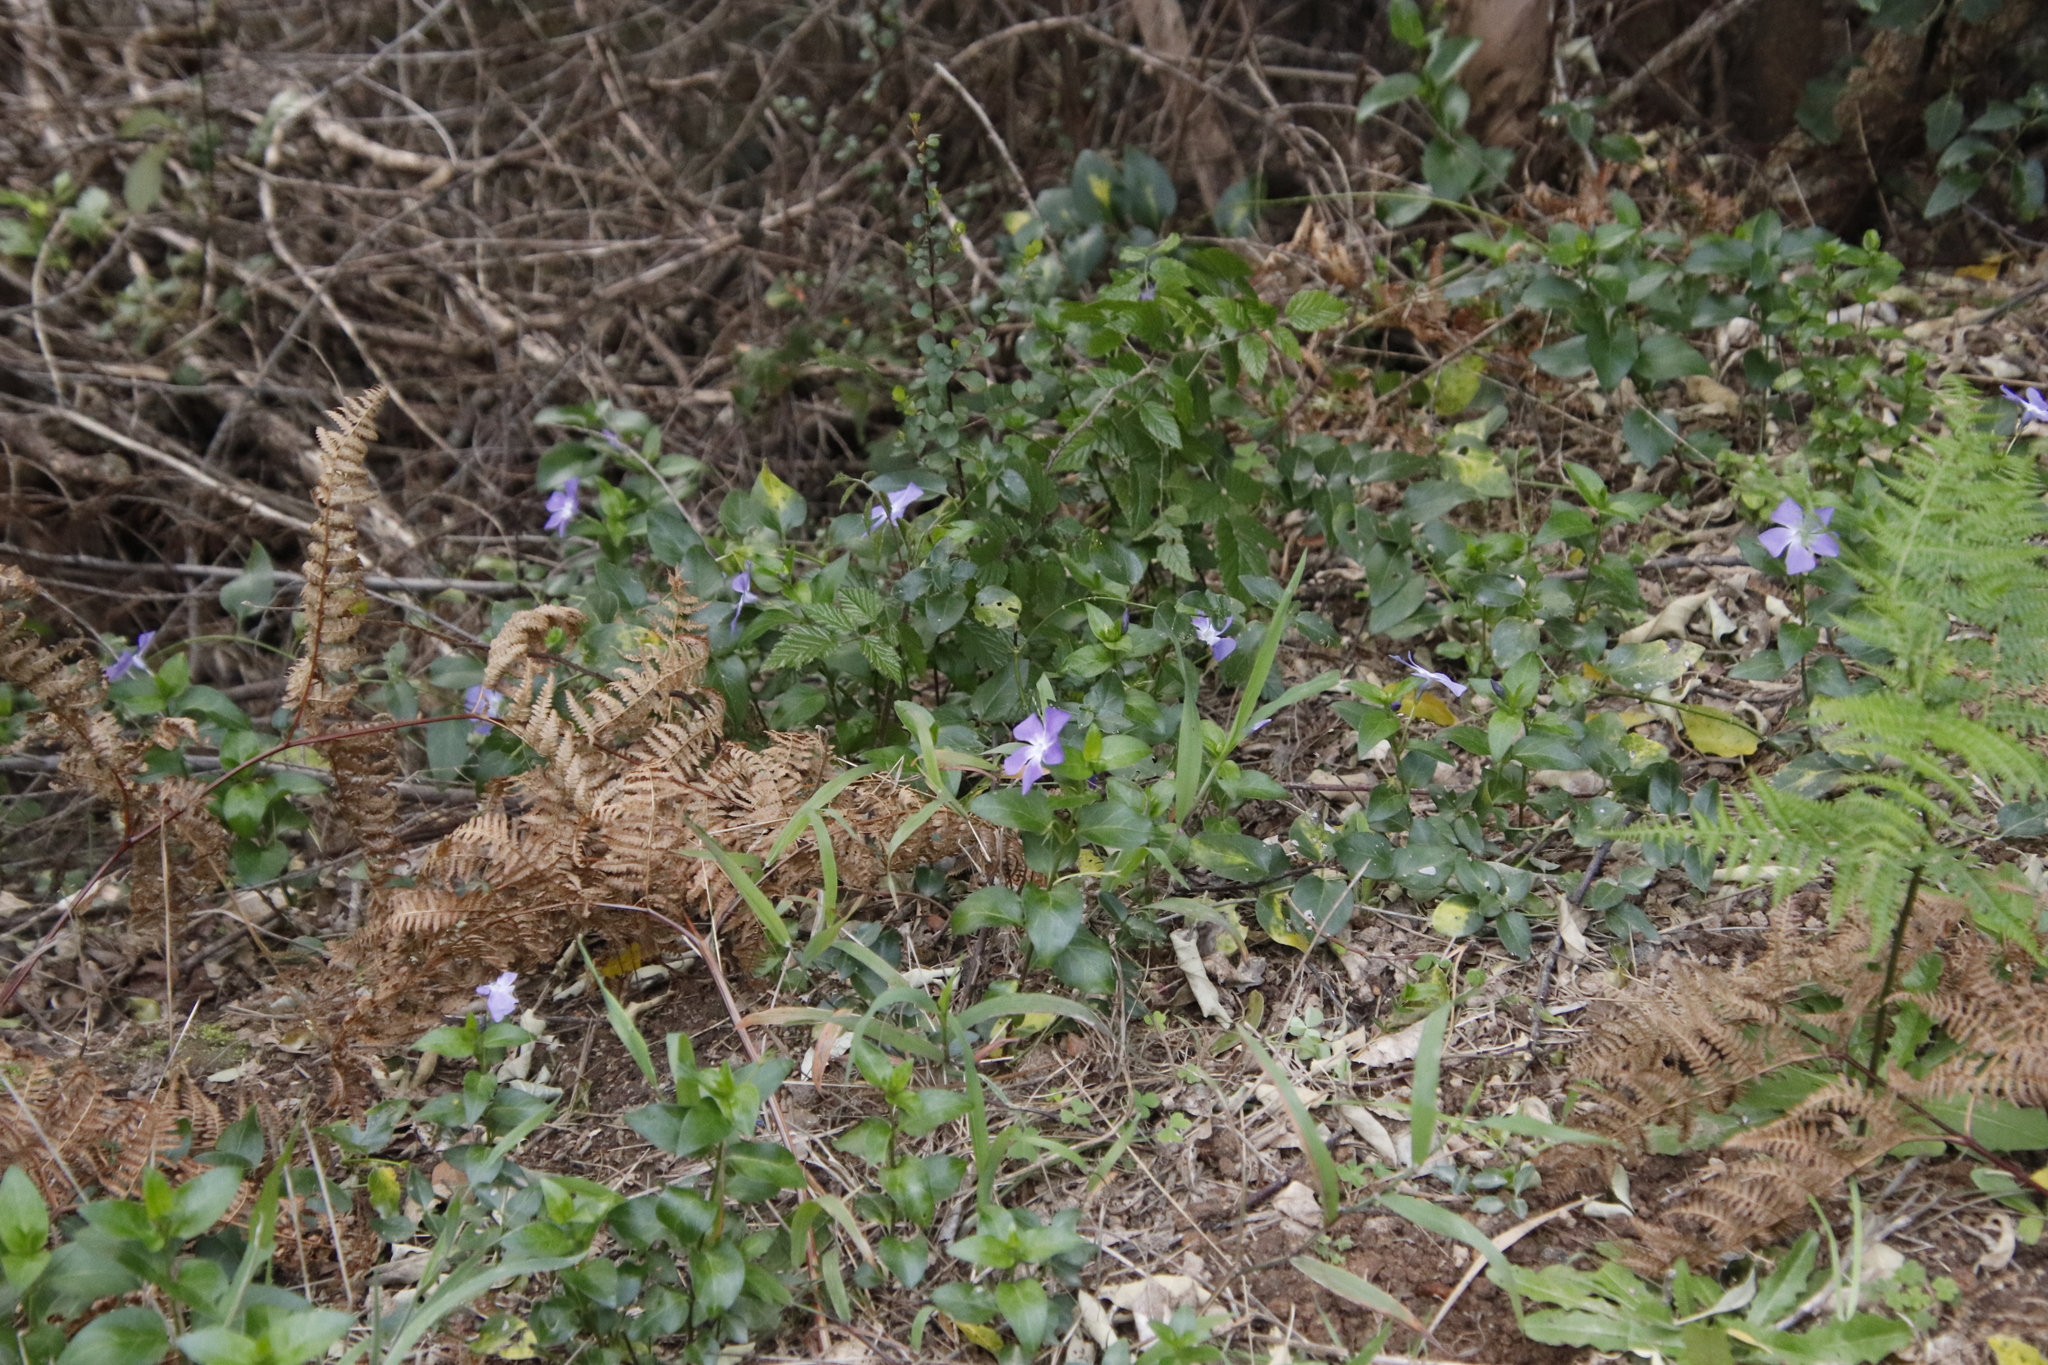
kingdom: Plantae
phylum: Tracheophyta
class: Magnoliopsida
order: Gentianales
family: Apocynaceae
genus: Vinca
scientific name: Vinca major
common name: Greater periwinkle
